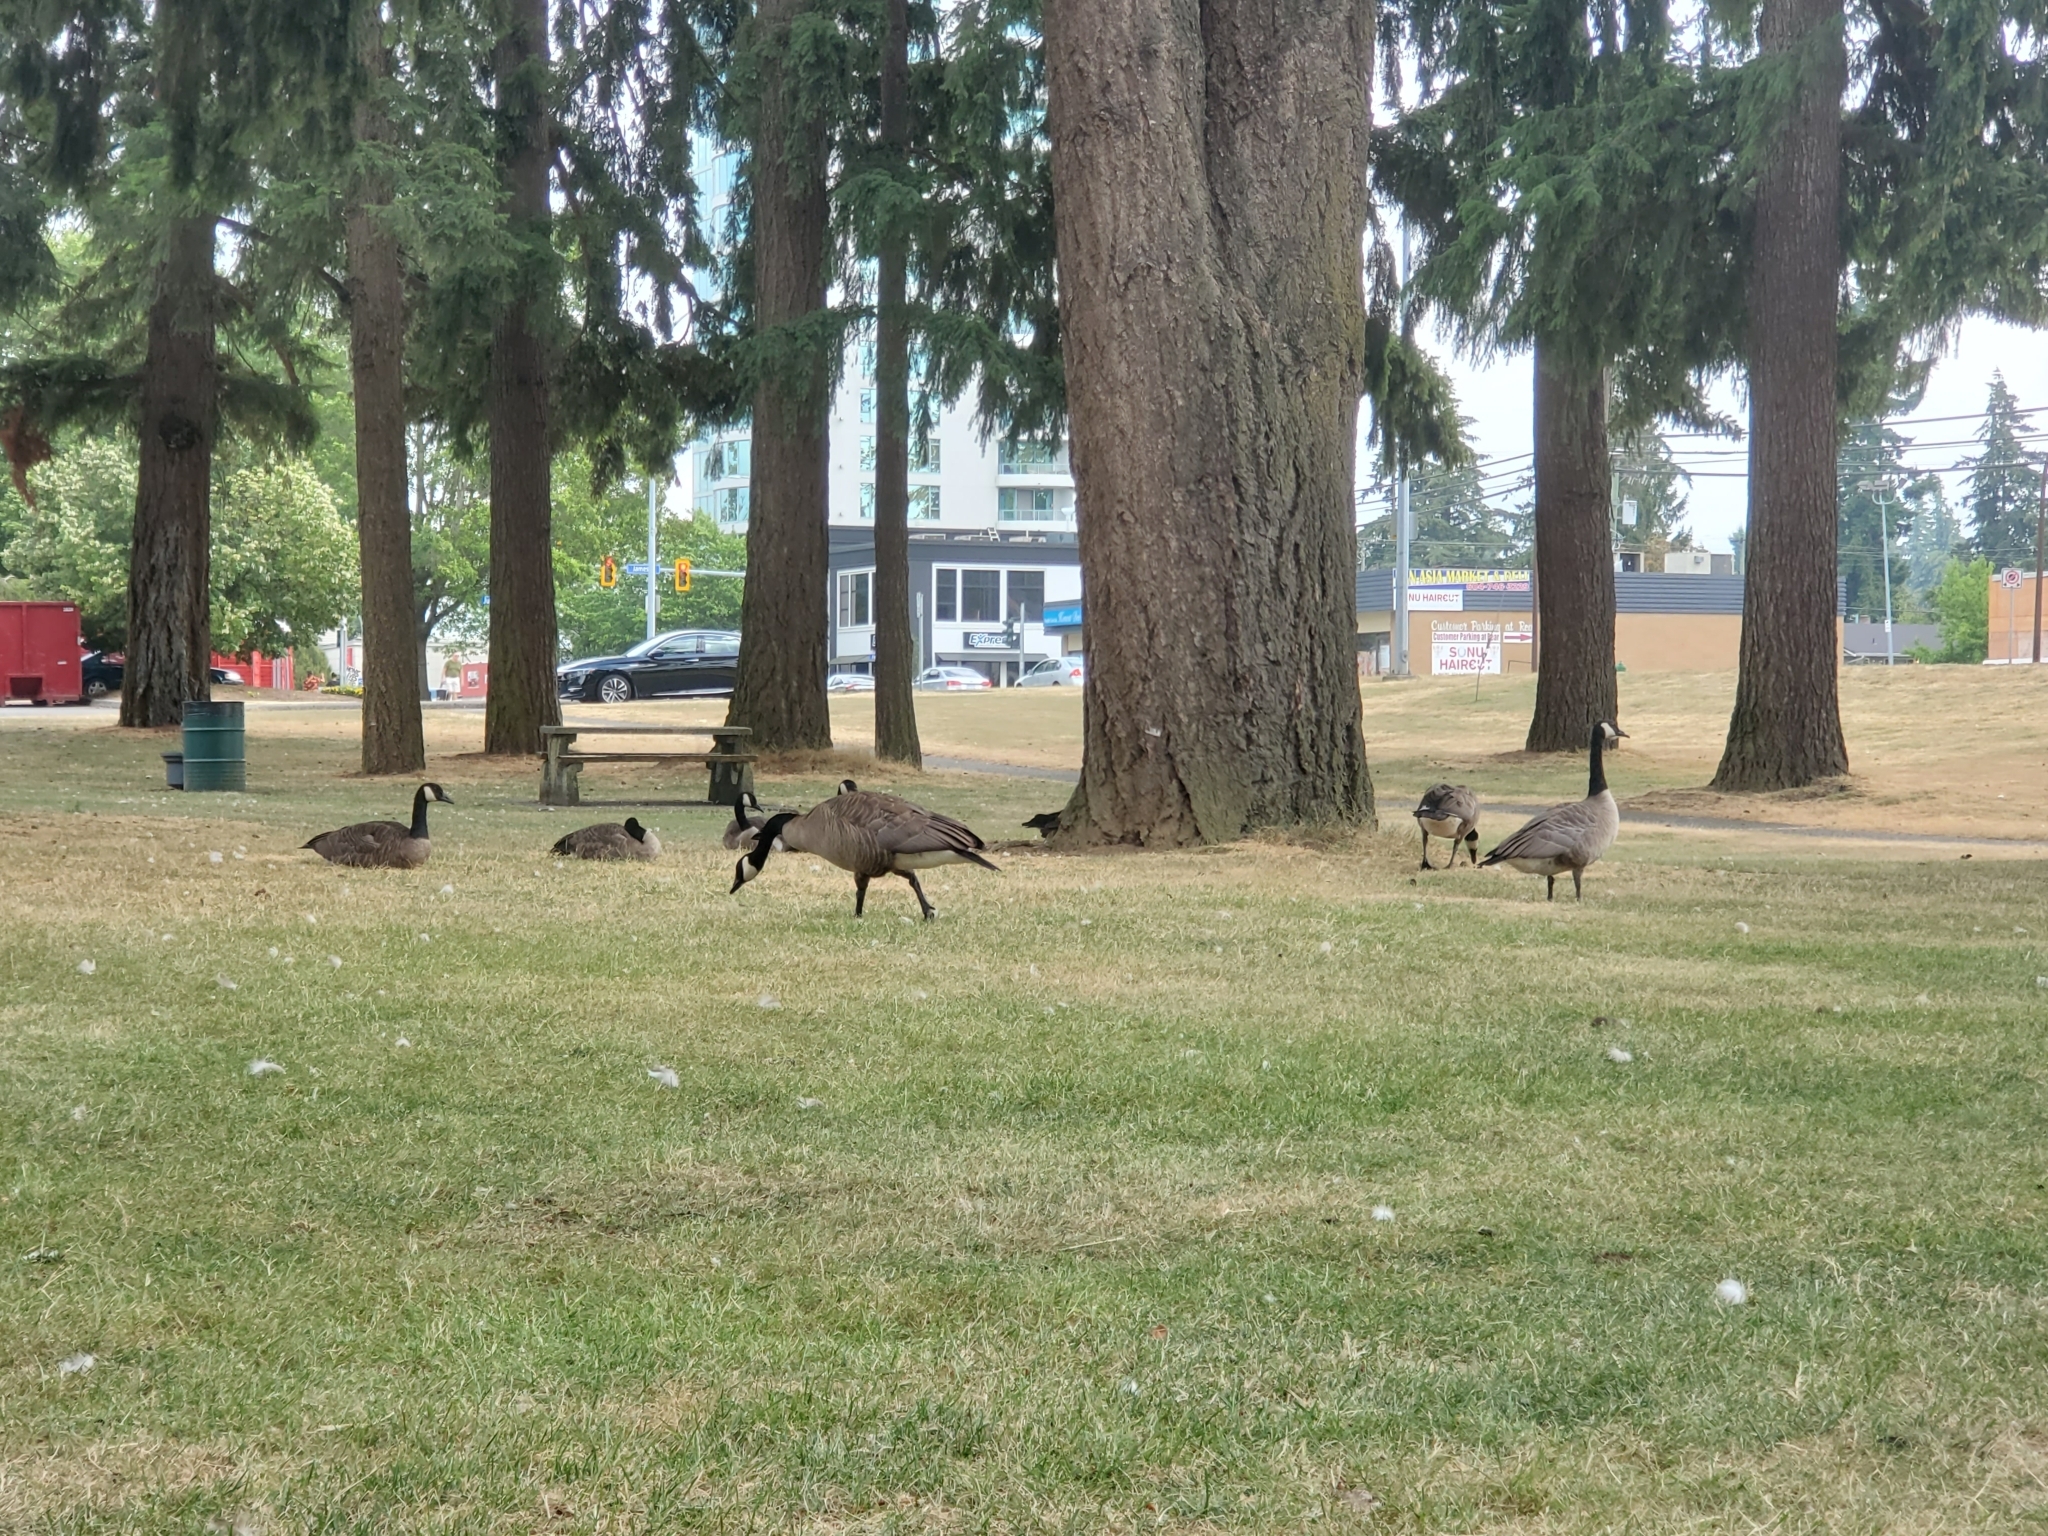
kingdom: Animalia
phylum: Chordata
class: Aves
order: Anseriformes
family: Anatidae
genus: Branta
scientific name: Branta canadensis
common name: Canada goose
